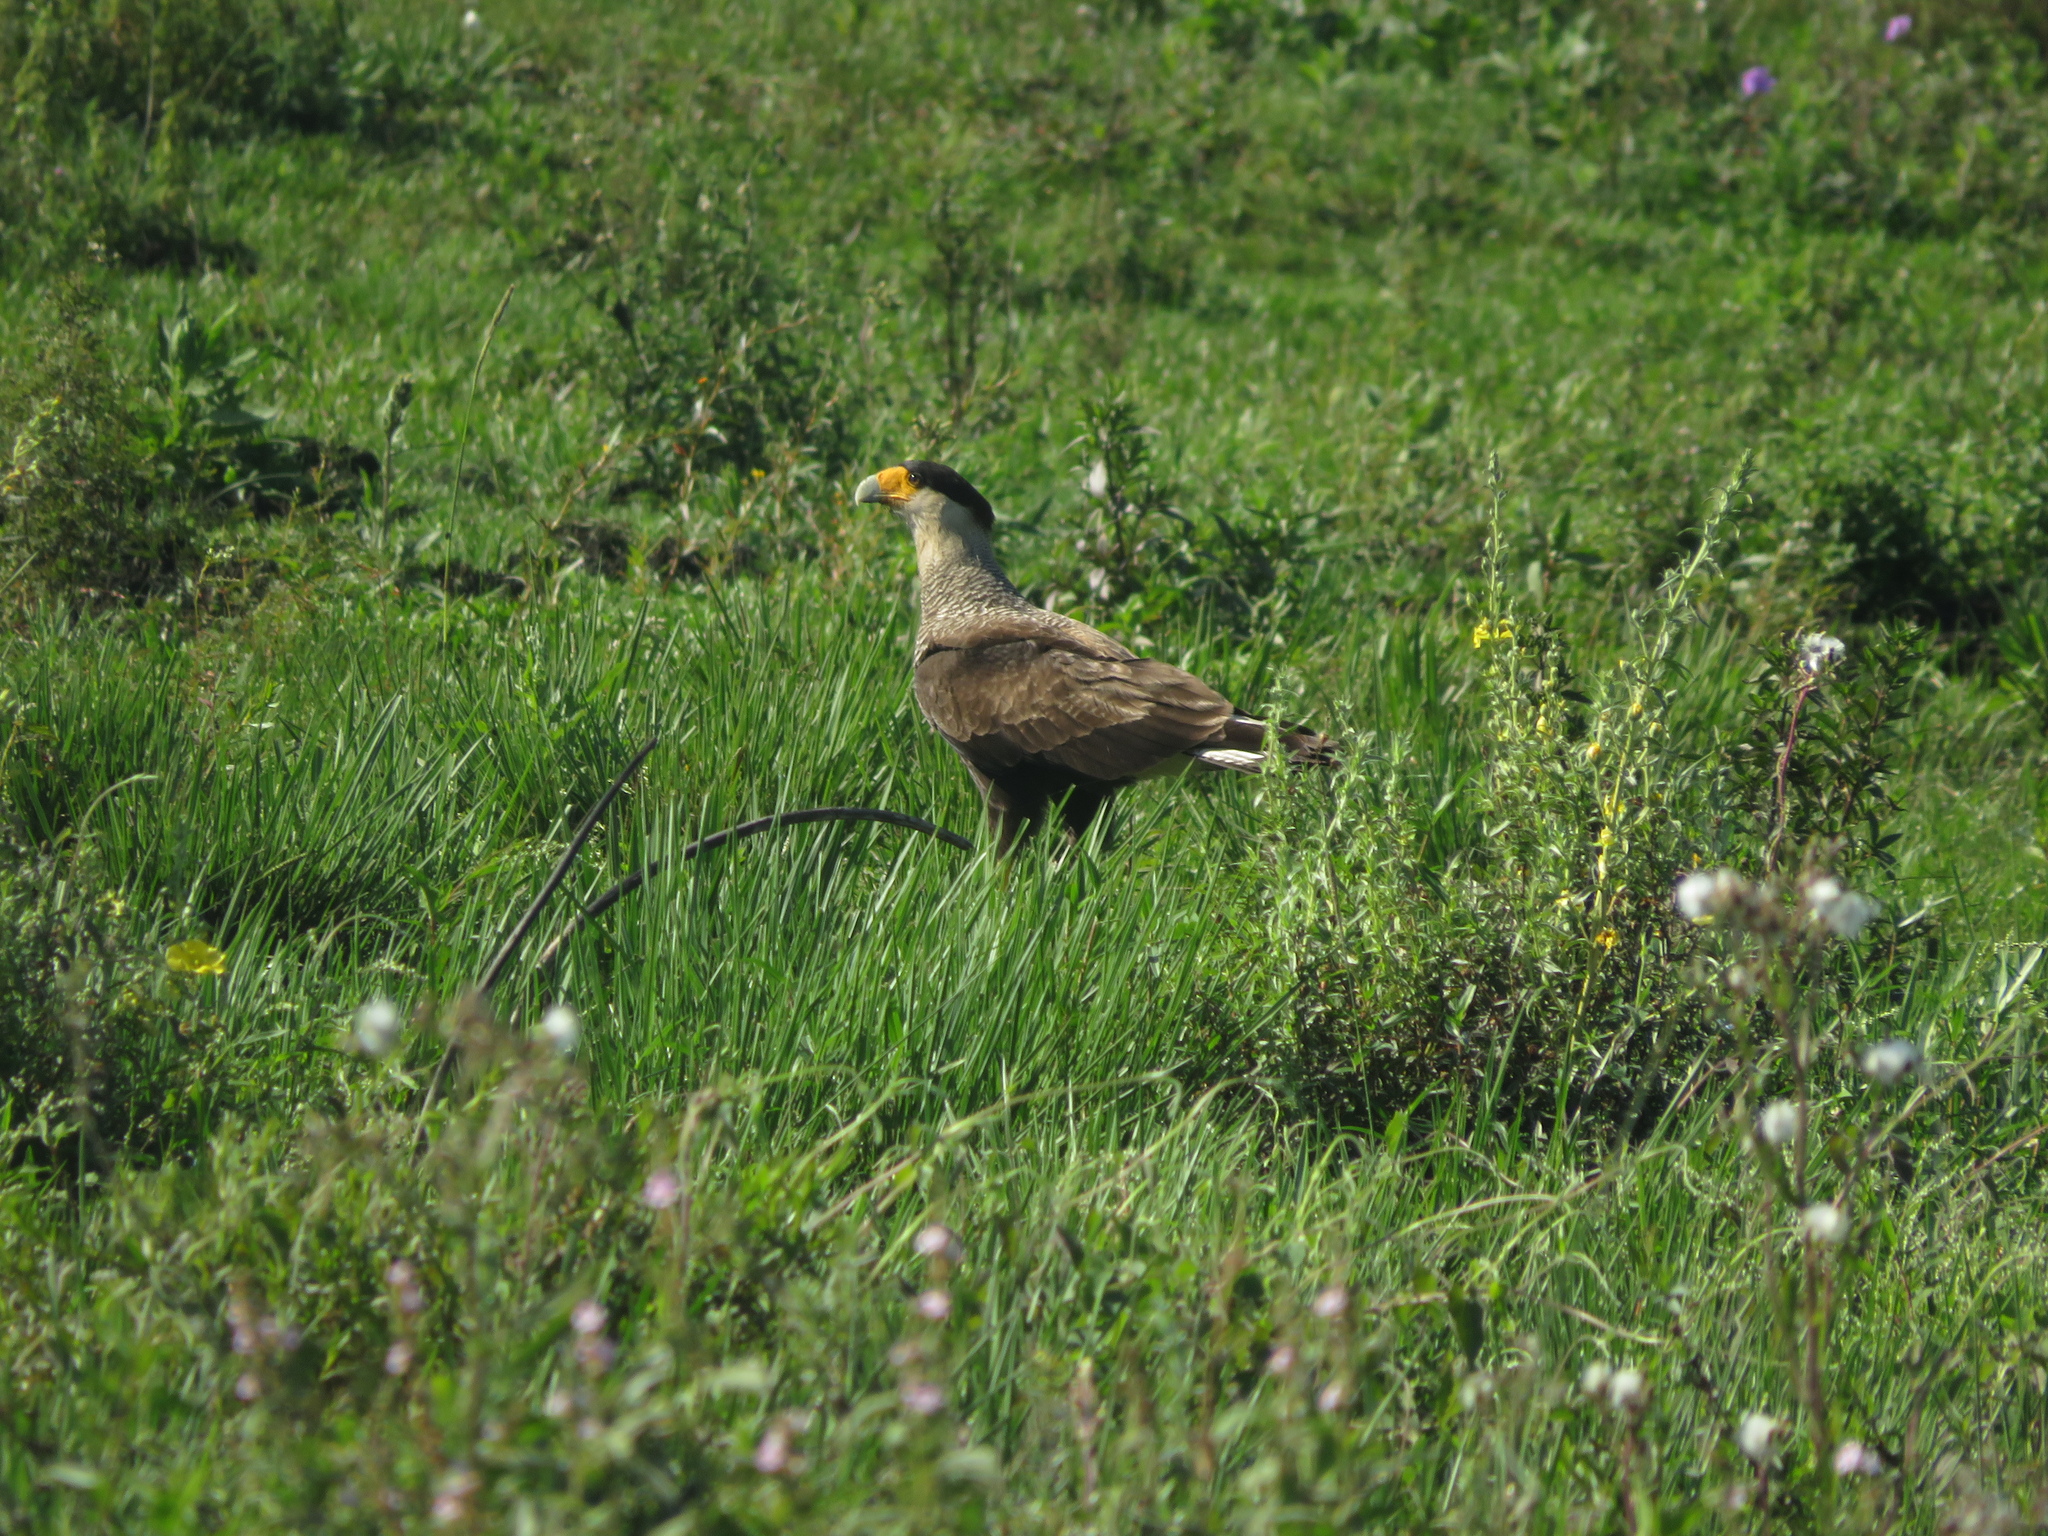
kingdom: Animalia
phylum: Chordata
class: Aves
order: Falconiformes
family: Falconidae
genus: Caracara
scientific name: Caracara plancus
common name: Southern caracara
